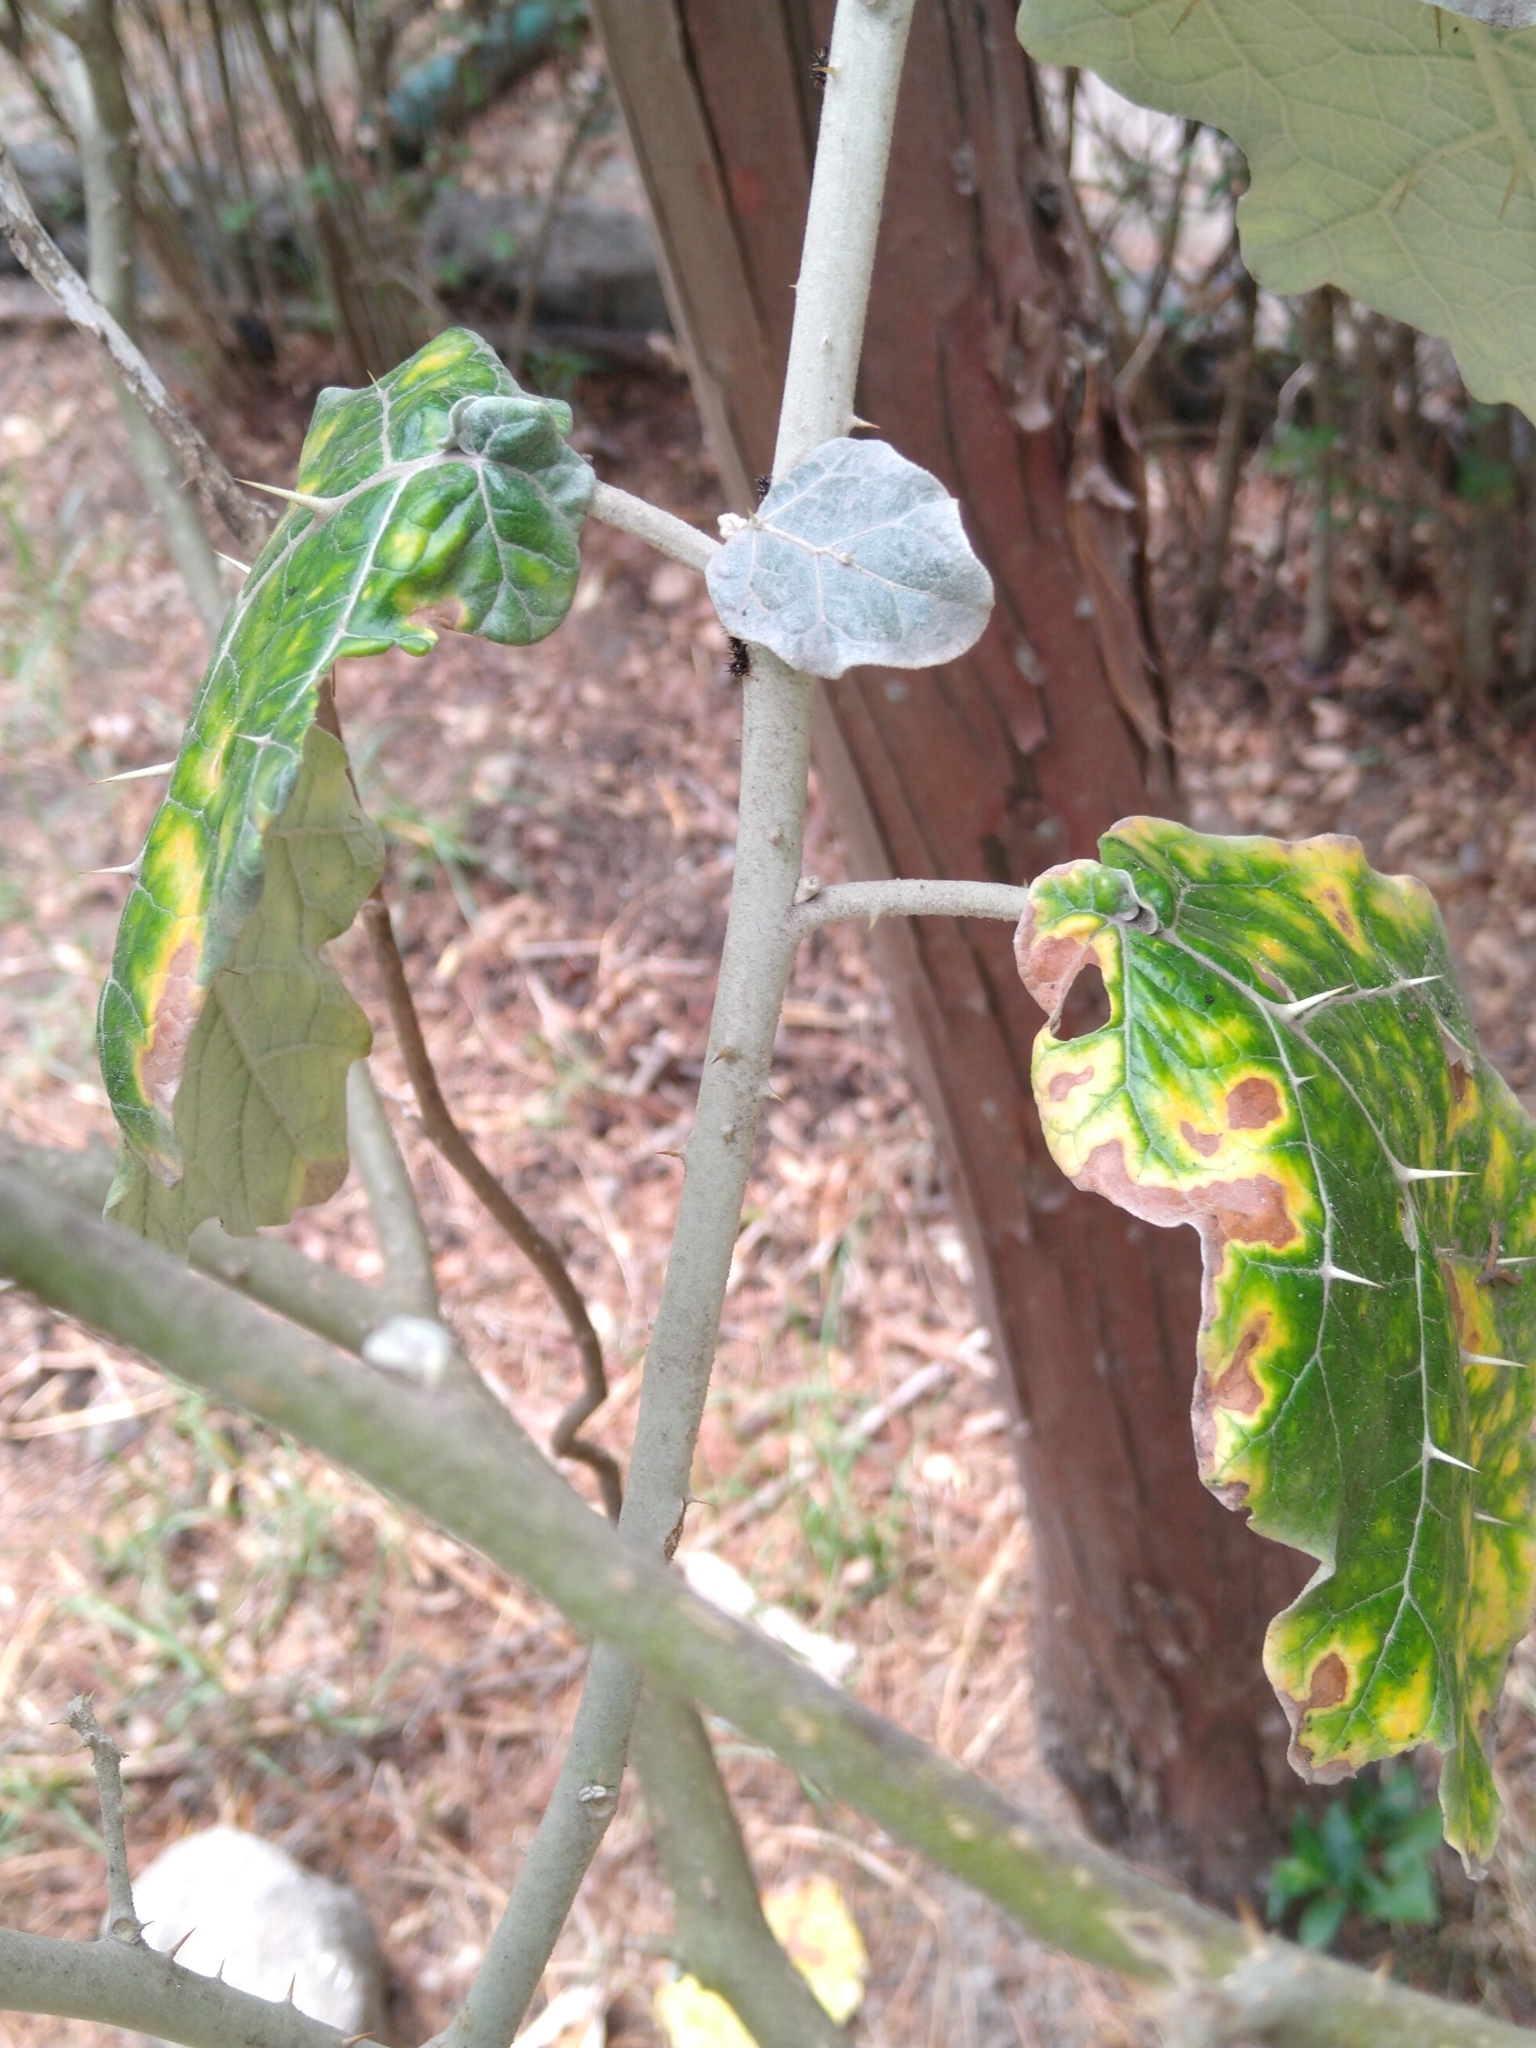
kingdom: Plantae
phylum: Tracheophyta
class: Magnoliopsida
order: Solanales
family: Solanaceae
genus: Solanum
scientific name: Solanum marginatum
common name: Purple african nightshade
